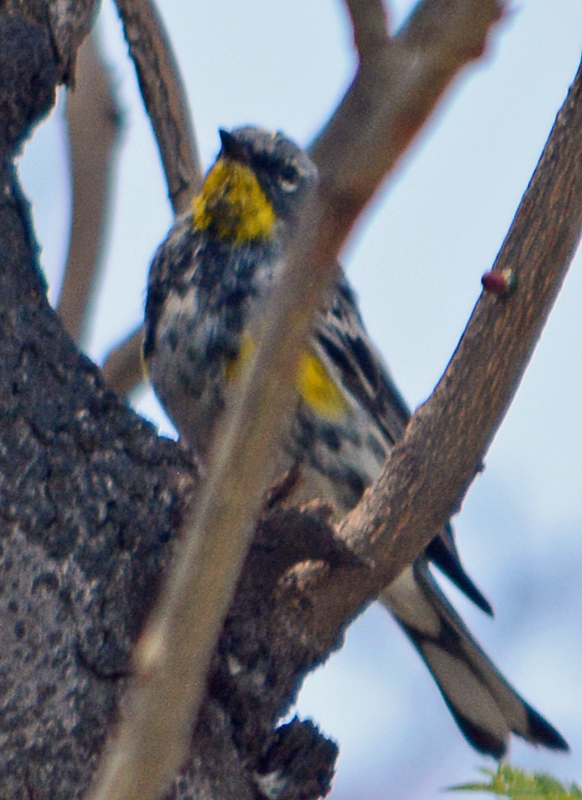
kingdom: Animalia
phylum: Chordata
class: Aves
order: Passeriformes
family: Parulidae
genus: Setophaga
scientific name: Setophaga auduboni
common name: Audubon's warbler
